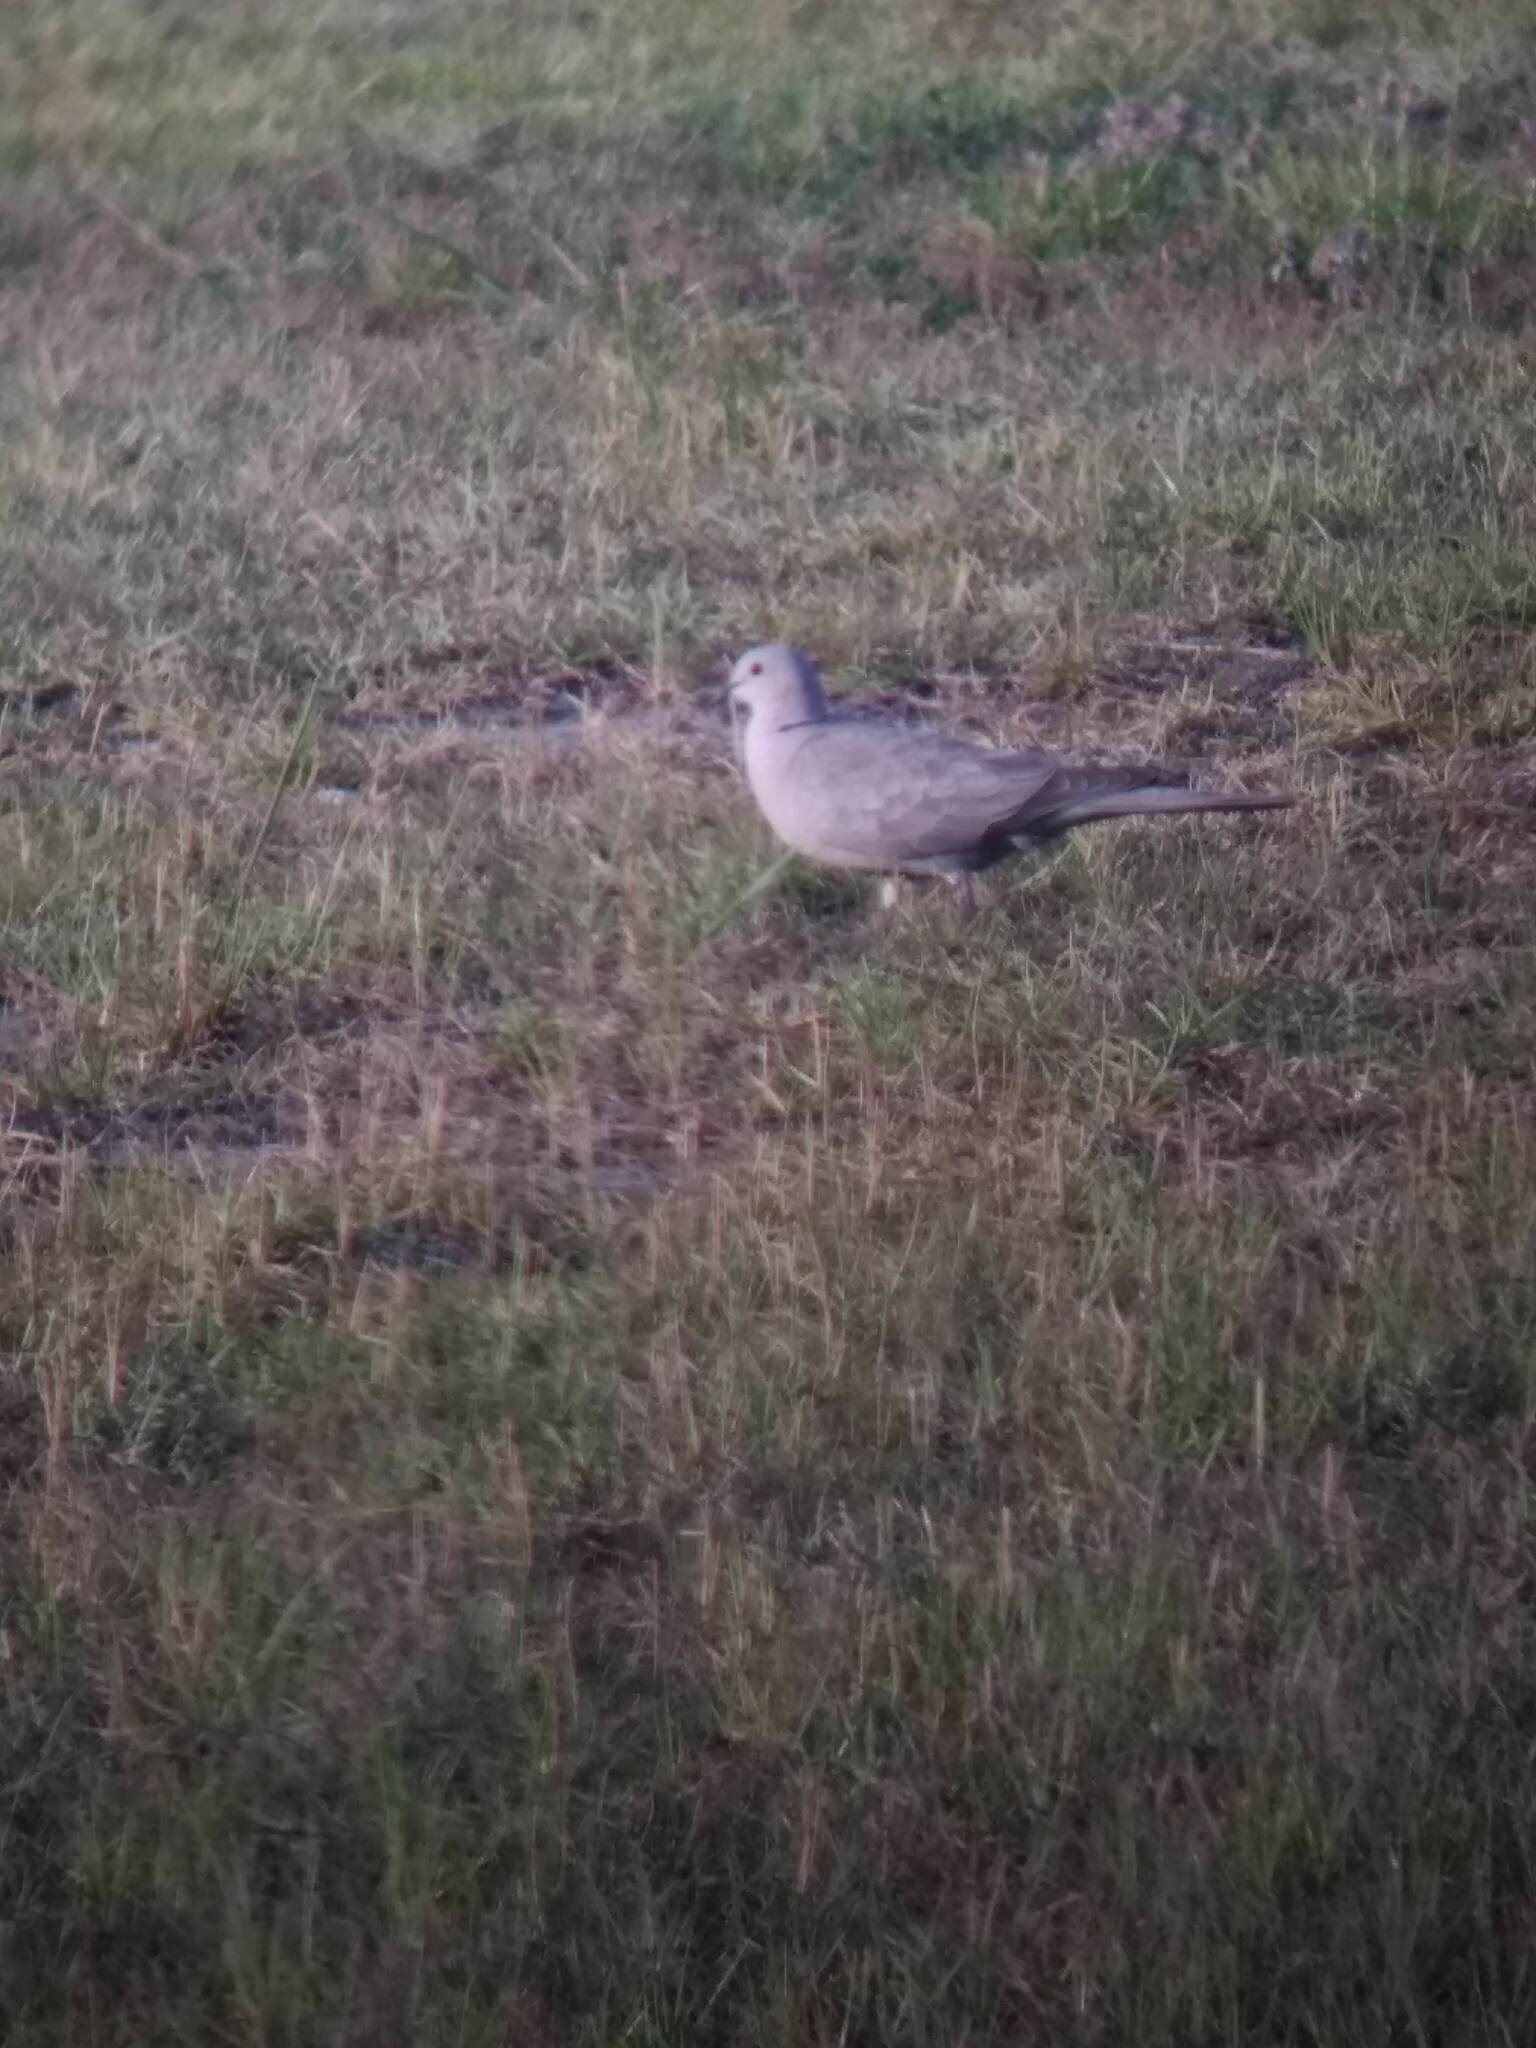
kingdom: Animalia
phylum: Chordata
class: Aves
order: Columbiformes
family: Columbidae
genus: Streptopelia
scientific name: Streptopelia decaocto
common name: Eurasian collared dove
